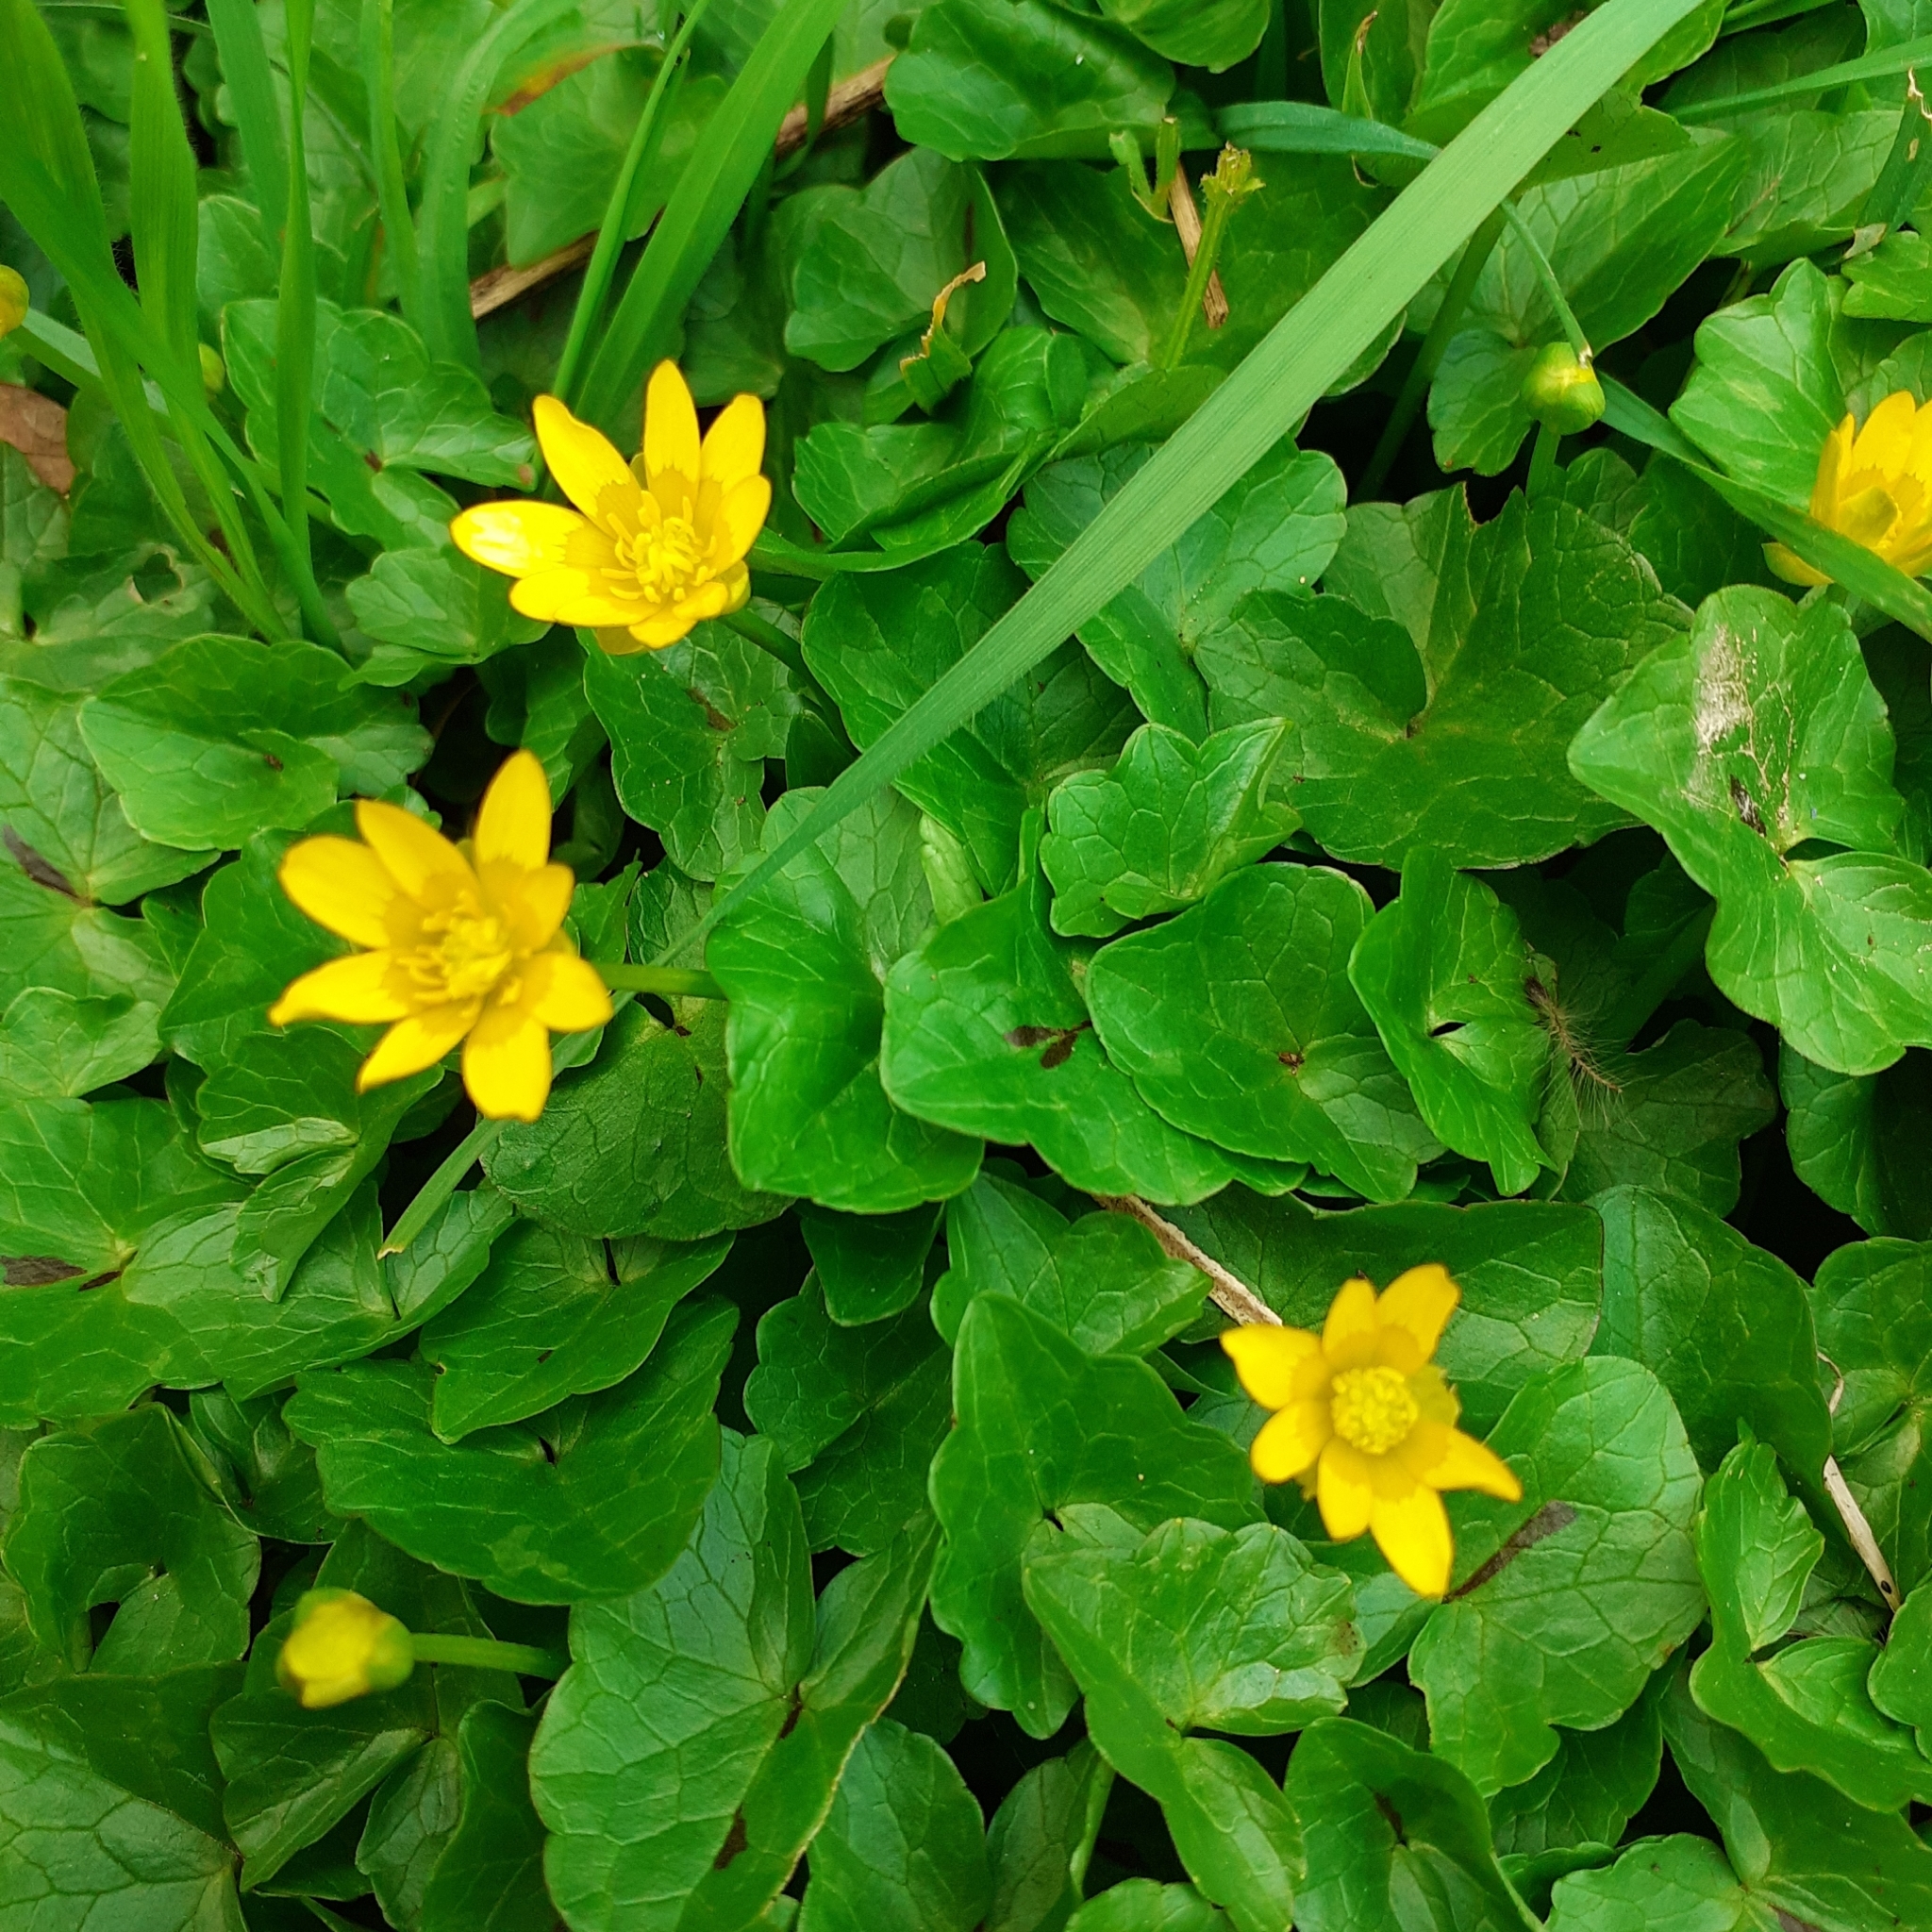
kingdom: Plantae
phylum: Tracheophyta
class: Magnoliopsida
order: Ranunculales
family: Ranunculaceae
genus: Ficaria
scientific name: Ficaria verna
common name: Lesser celandine
